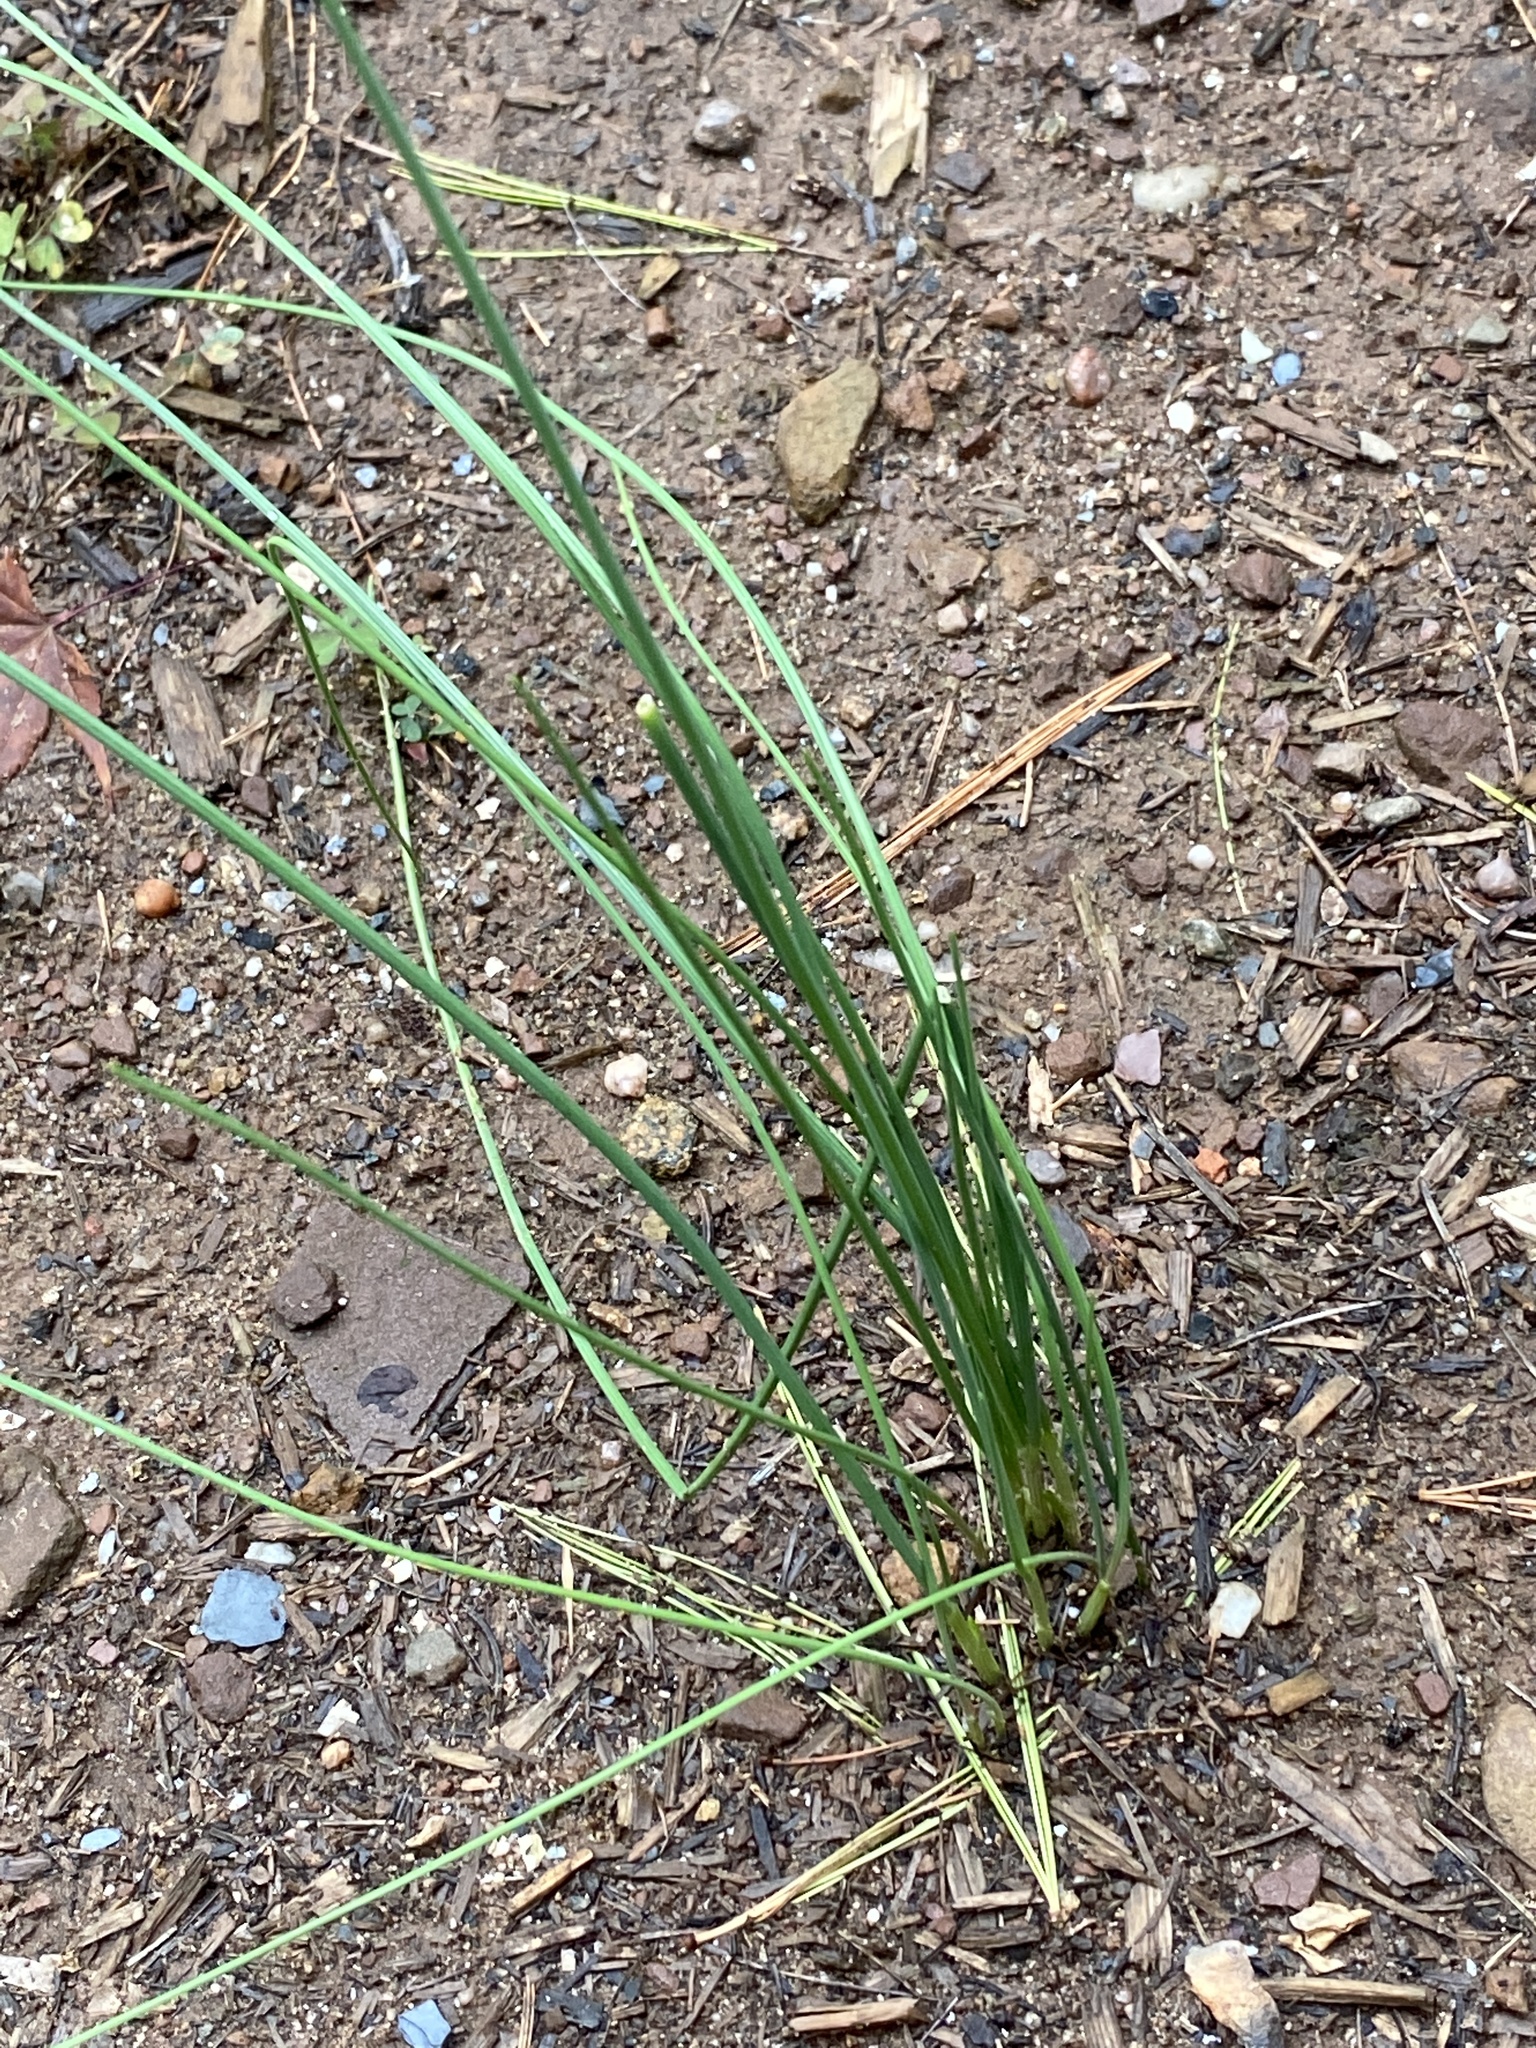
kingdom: Plantae
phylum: Tracheophyta
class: Liliopsida
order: Asparagales
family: Amaryllidaceae
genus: Allium
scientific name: Allium vineale
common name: Crow garlic
